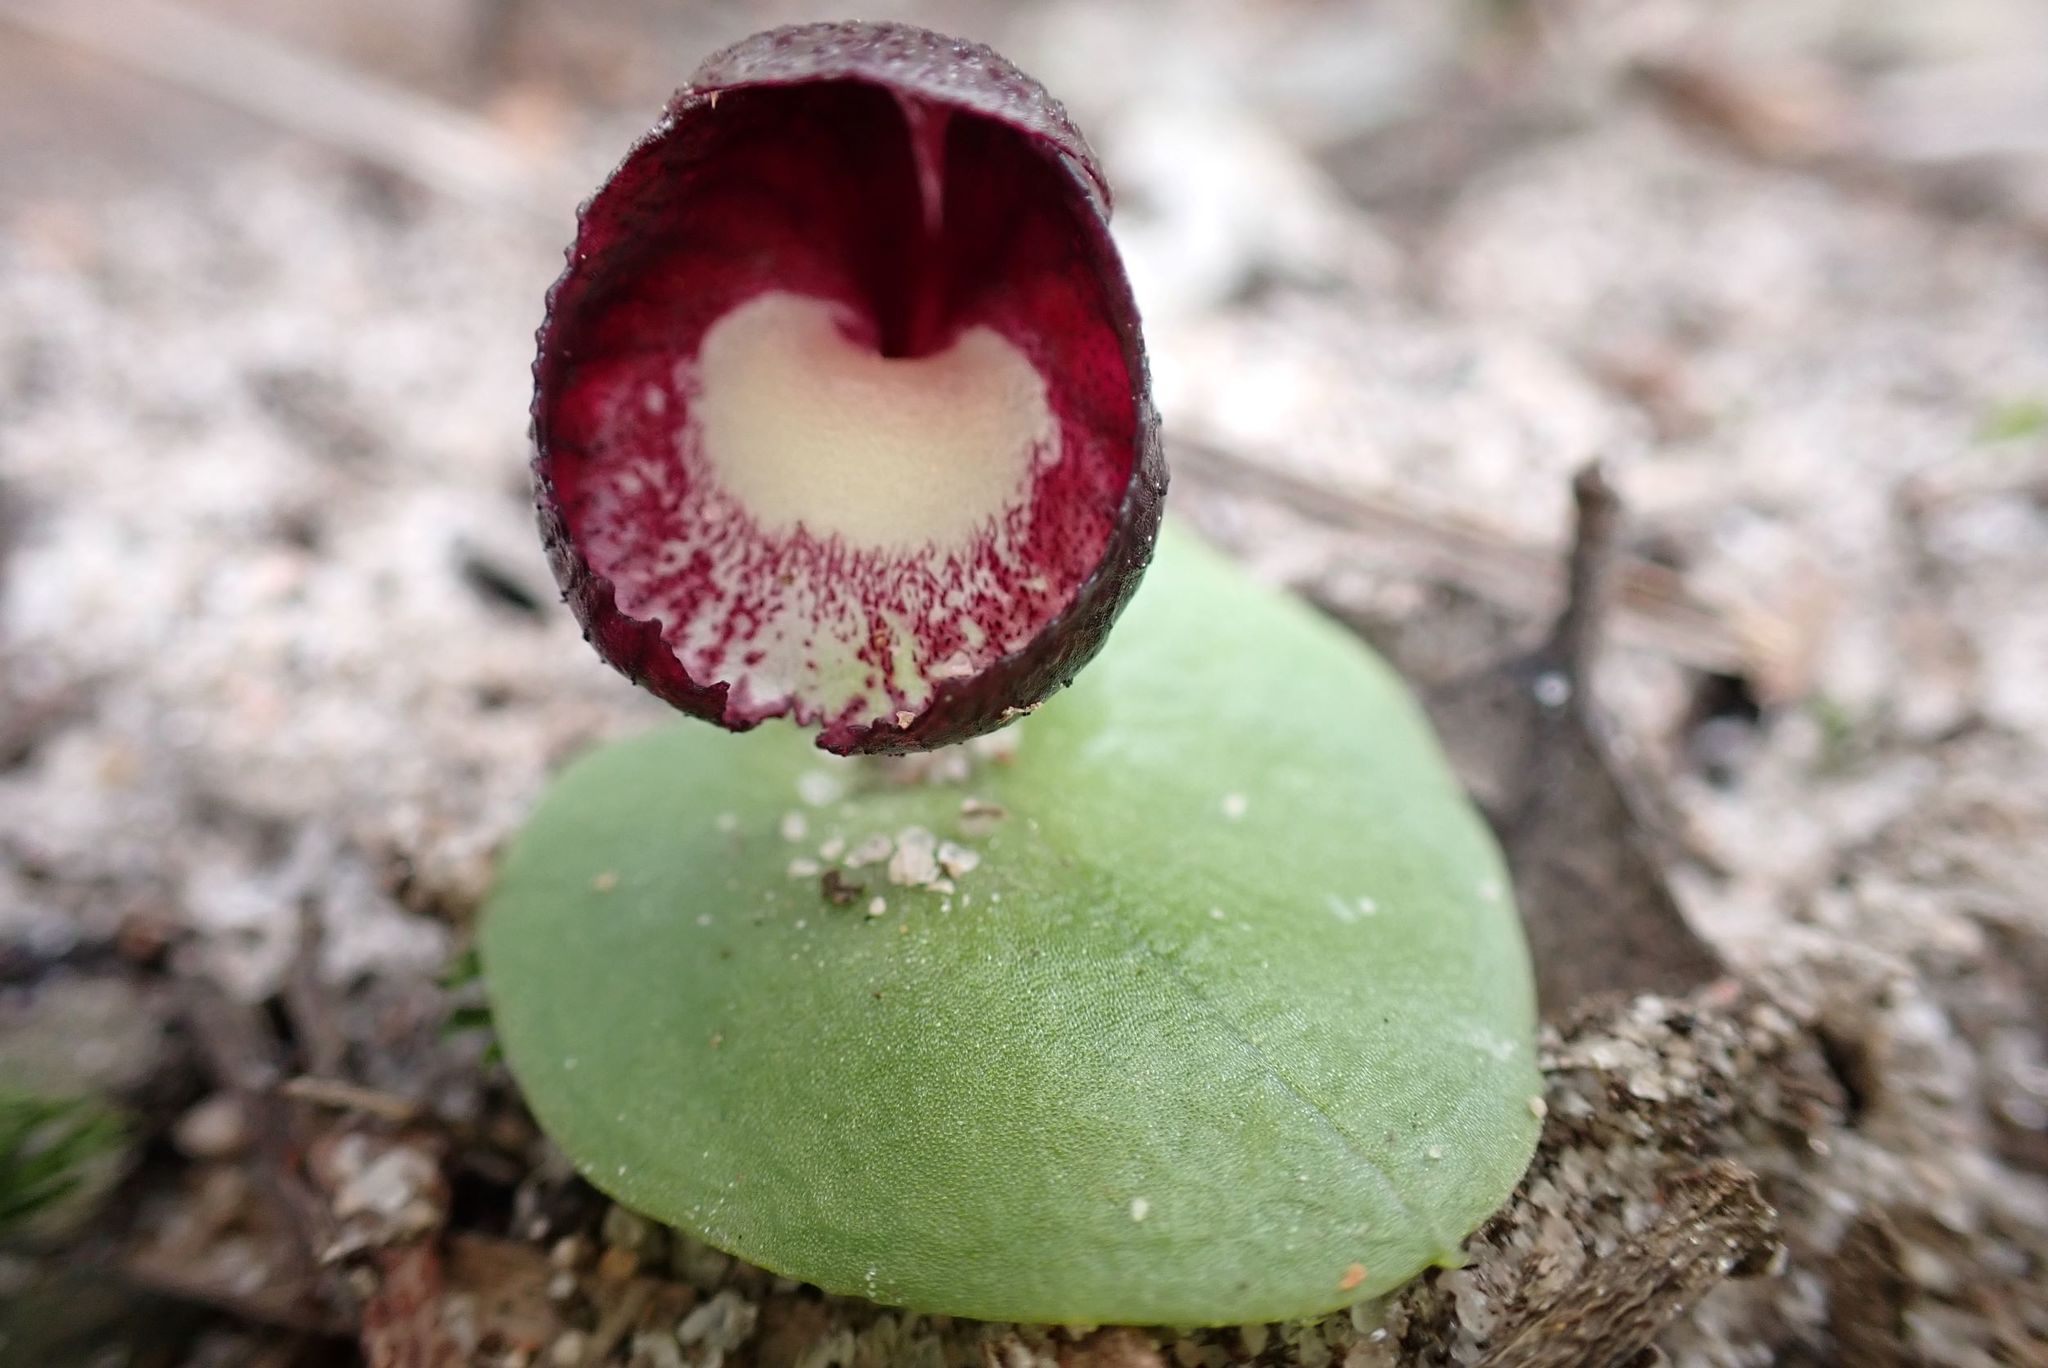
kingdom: Plantae
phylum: Tracheophyta
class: Liliopsida
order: Asparagales
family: Orchidaceae
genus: Corybas
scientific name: Corybas incurvus
